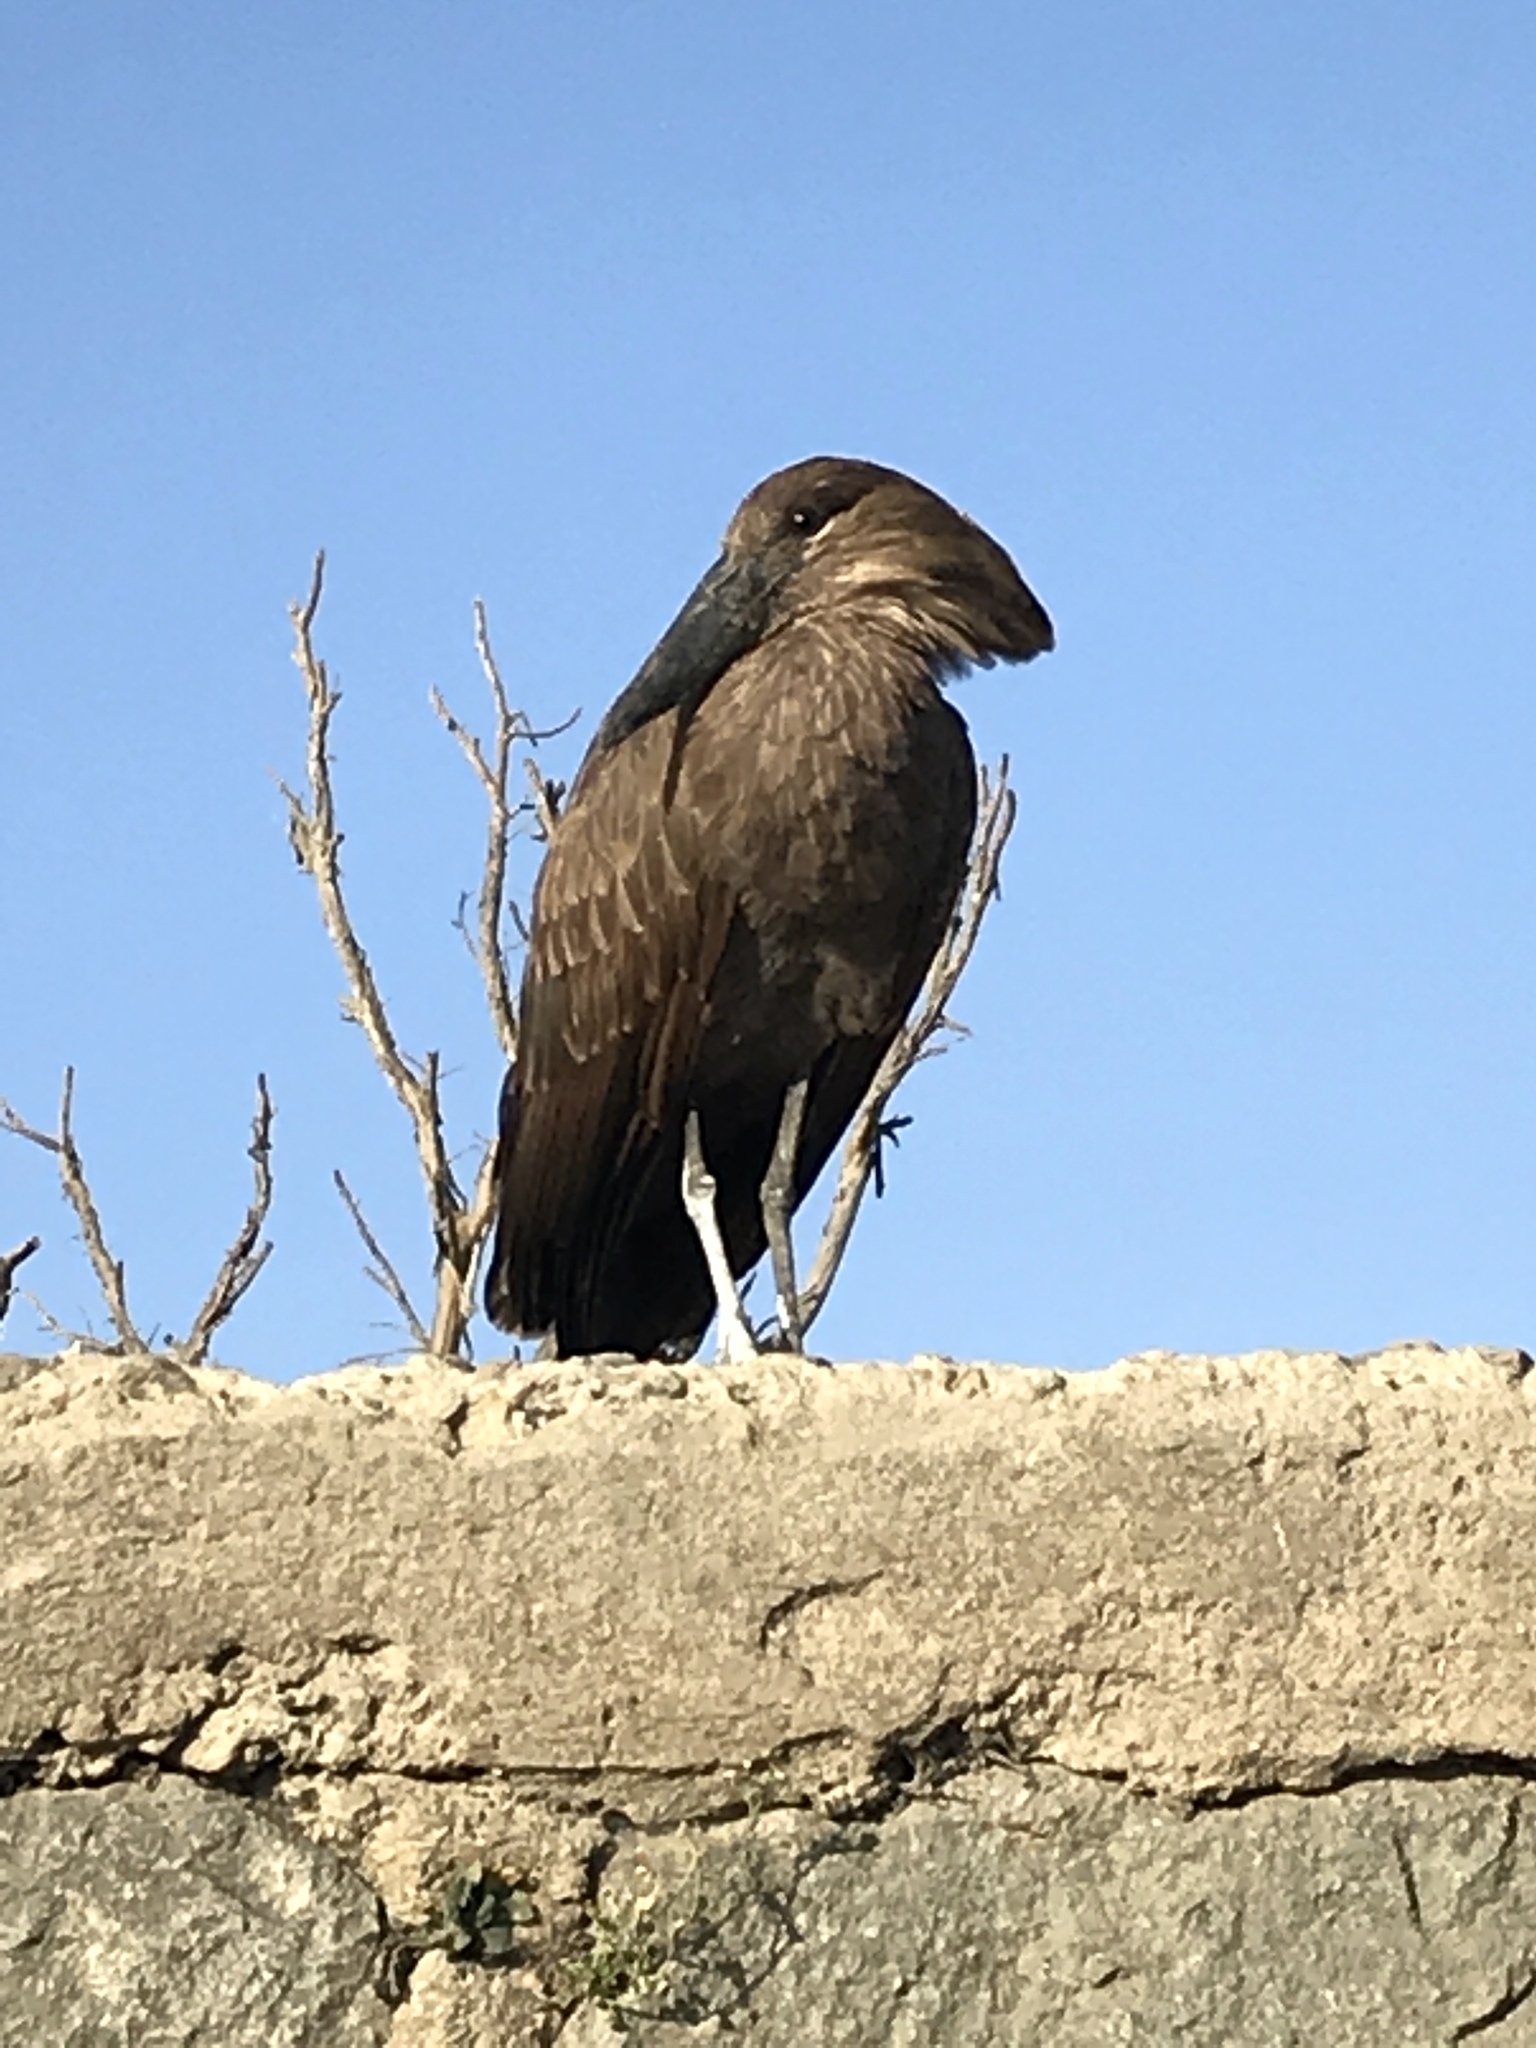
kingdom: Animalia
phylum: Chordata
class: Aves
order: Pelecaniformes
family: Scopidae
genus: Scopus
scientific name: Scopus umbretta
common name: Hamerkop
